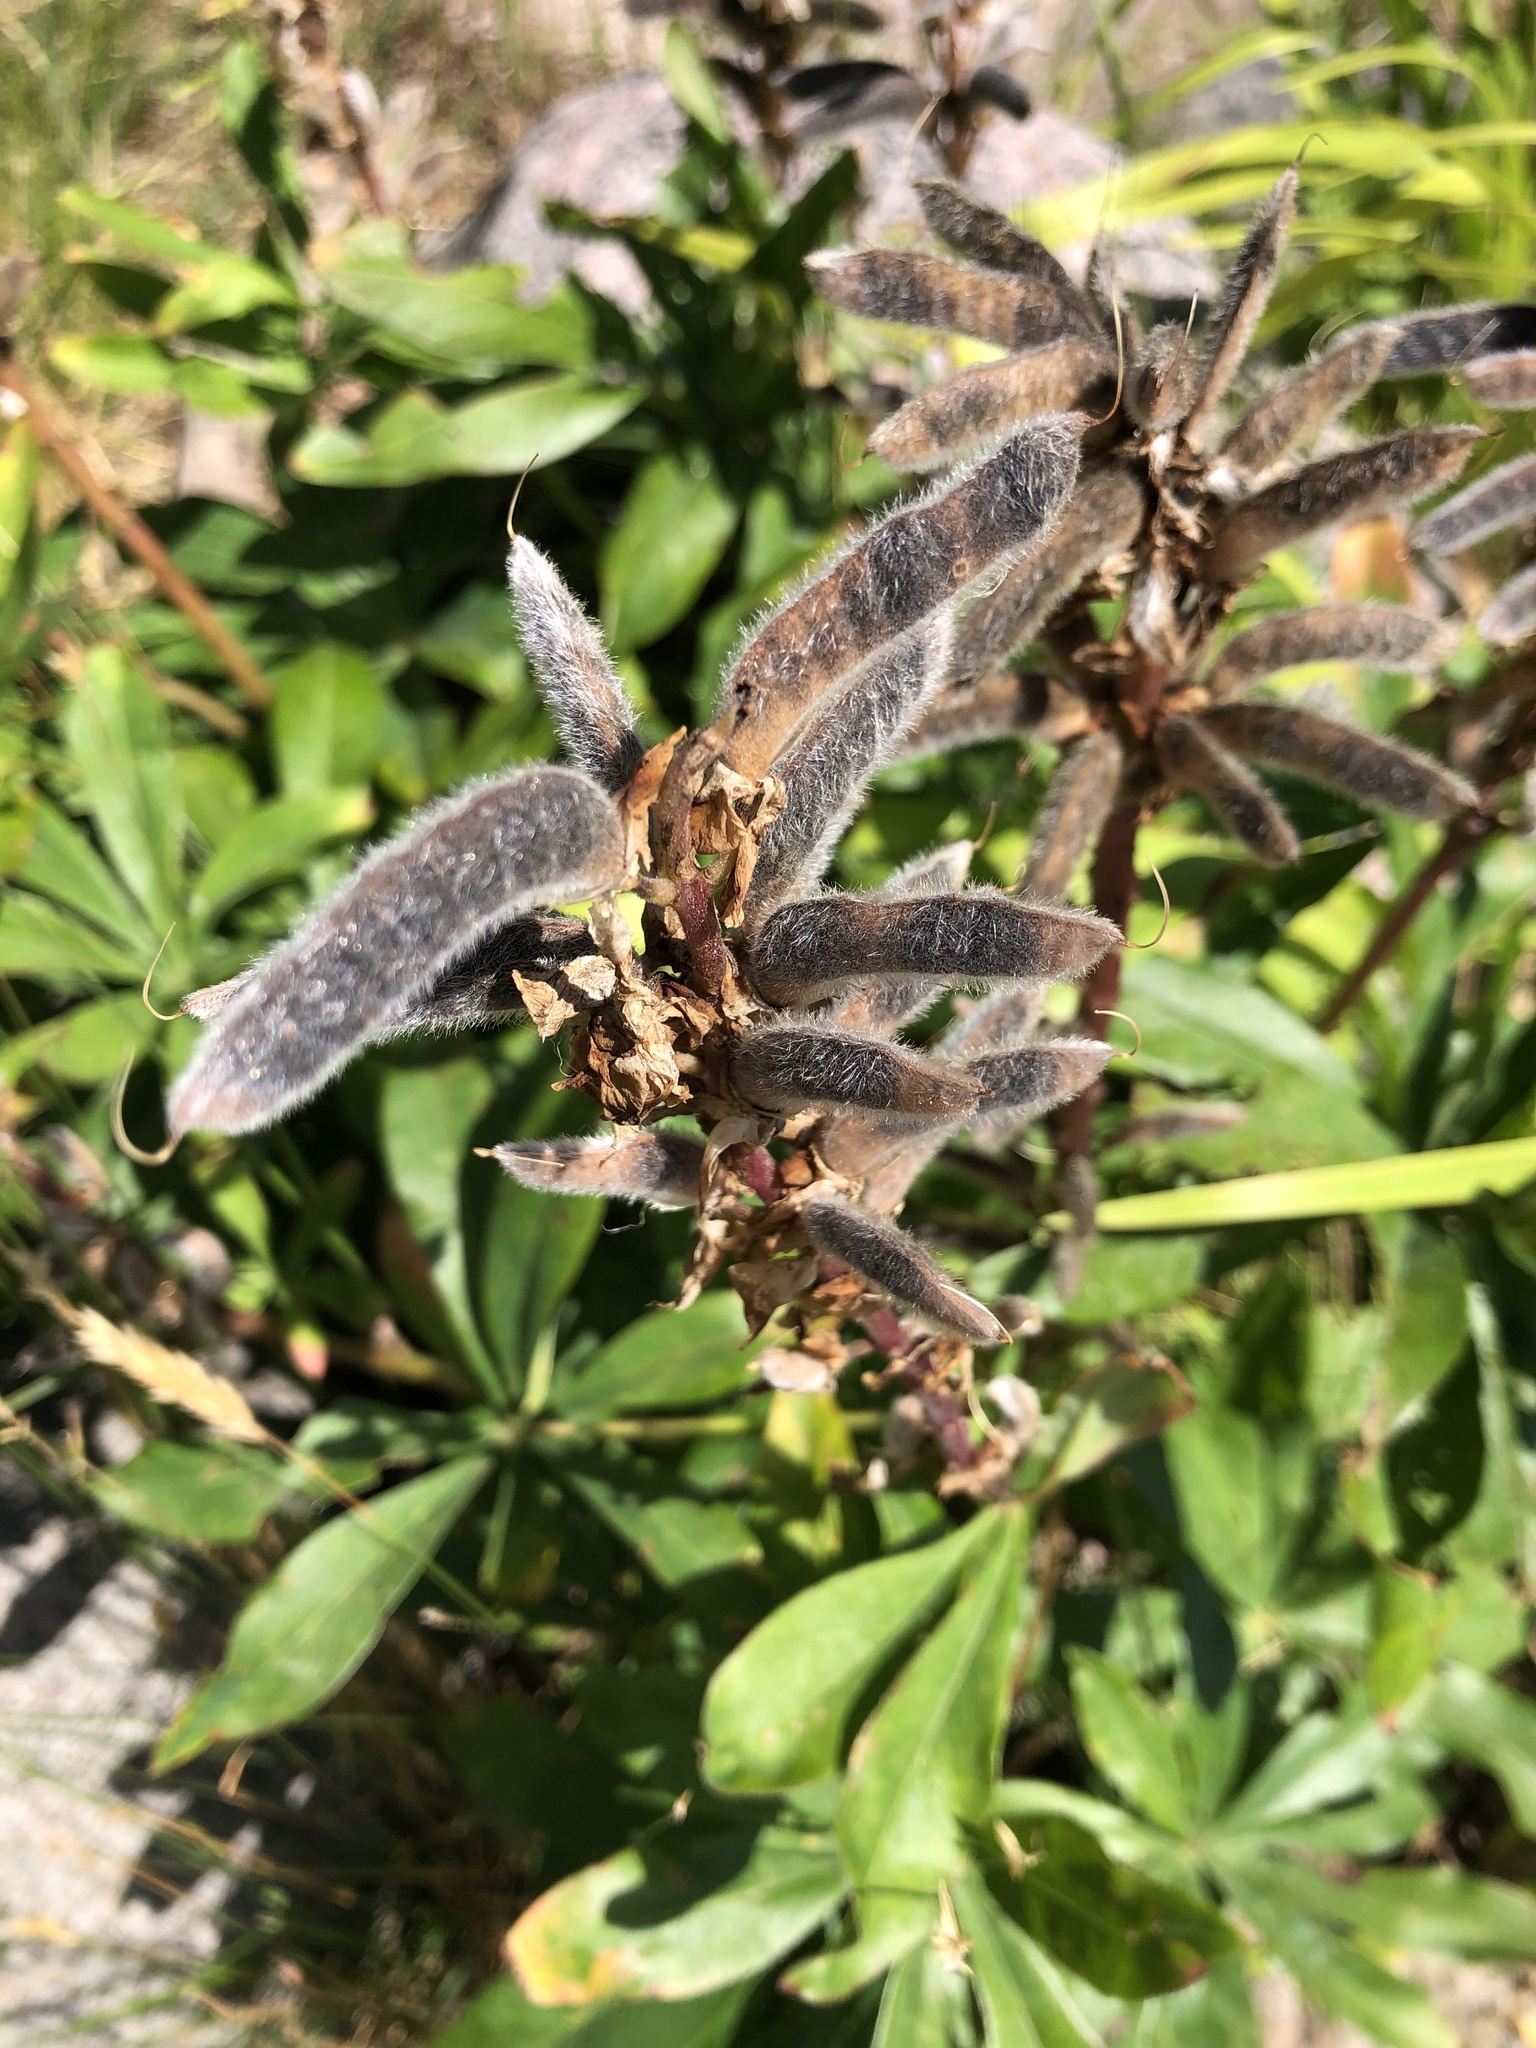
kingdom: Plantae
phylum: Tracheophyta
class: Magnoliopsida
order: Fabales
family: Fabaceae
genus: Lupinus
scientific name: Lupinus polyphyllus
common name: Garden lupin
